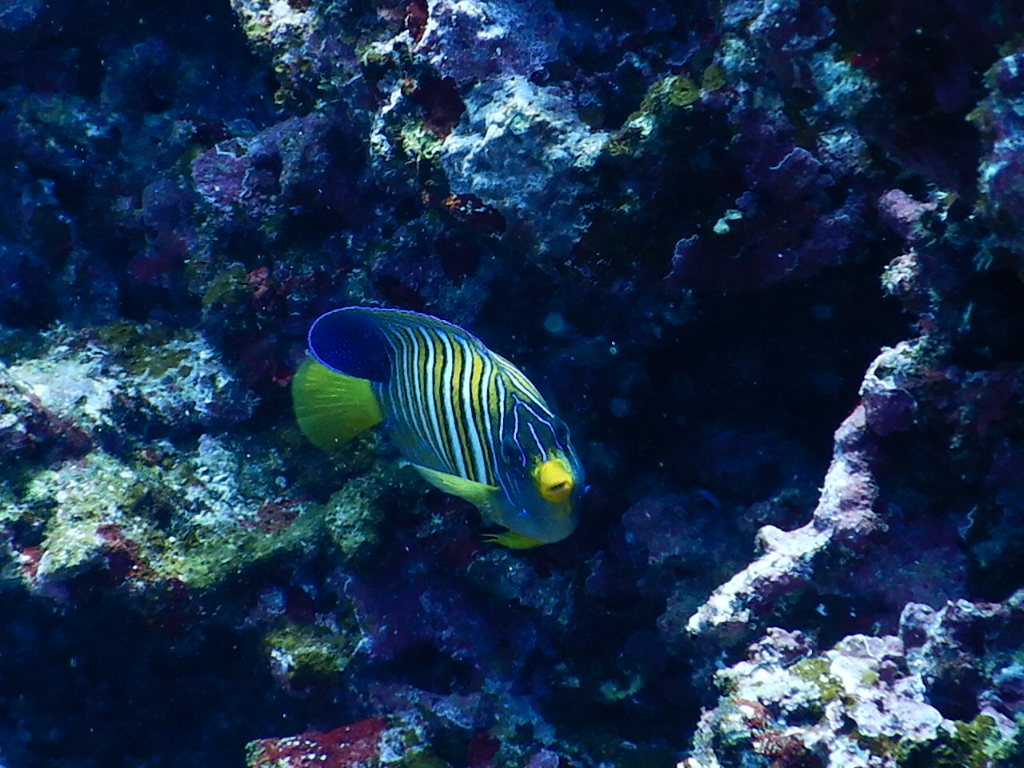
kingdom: Animalia
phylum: Chordata
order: Perciformes
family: Pomacanthidae
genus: Pygoplites
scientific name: Pygoplites diacanthus
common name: Regal angelfish
